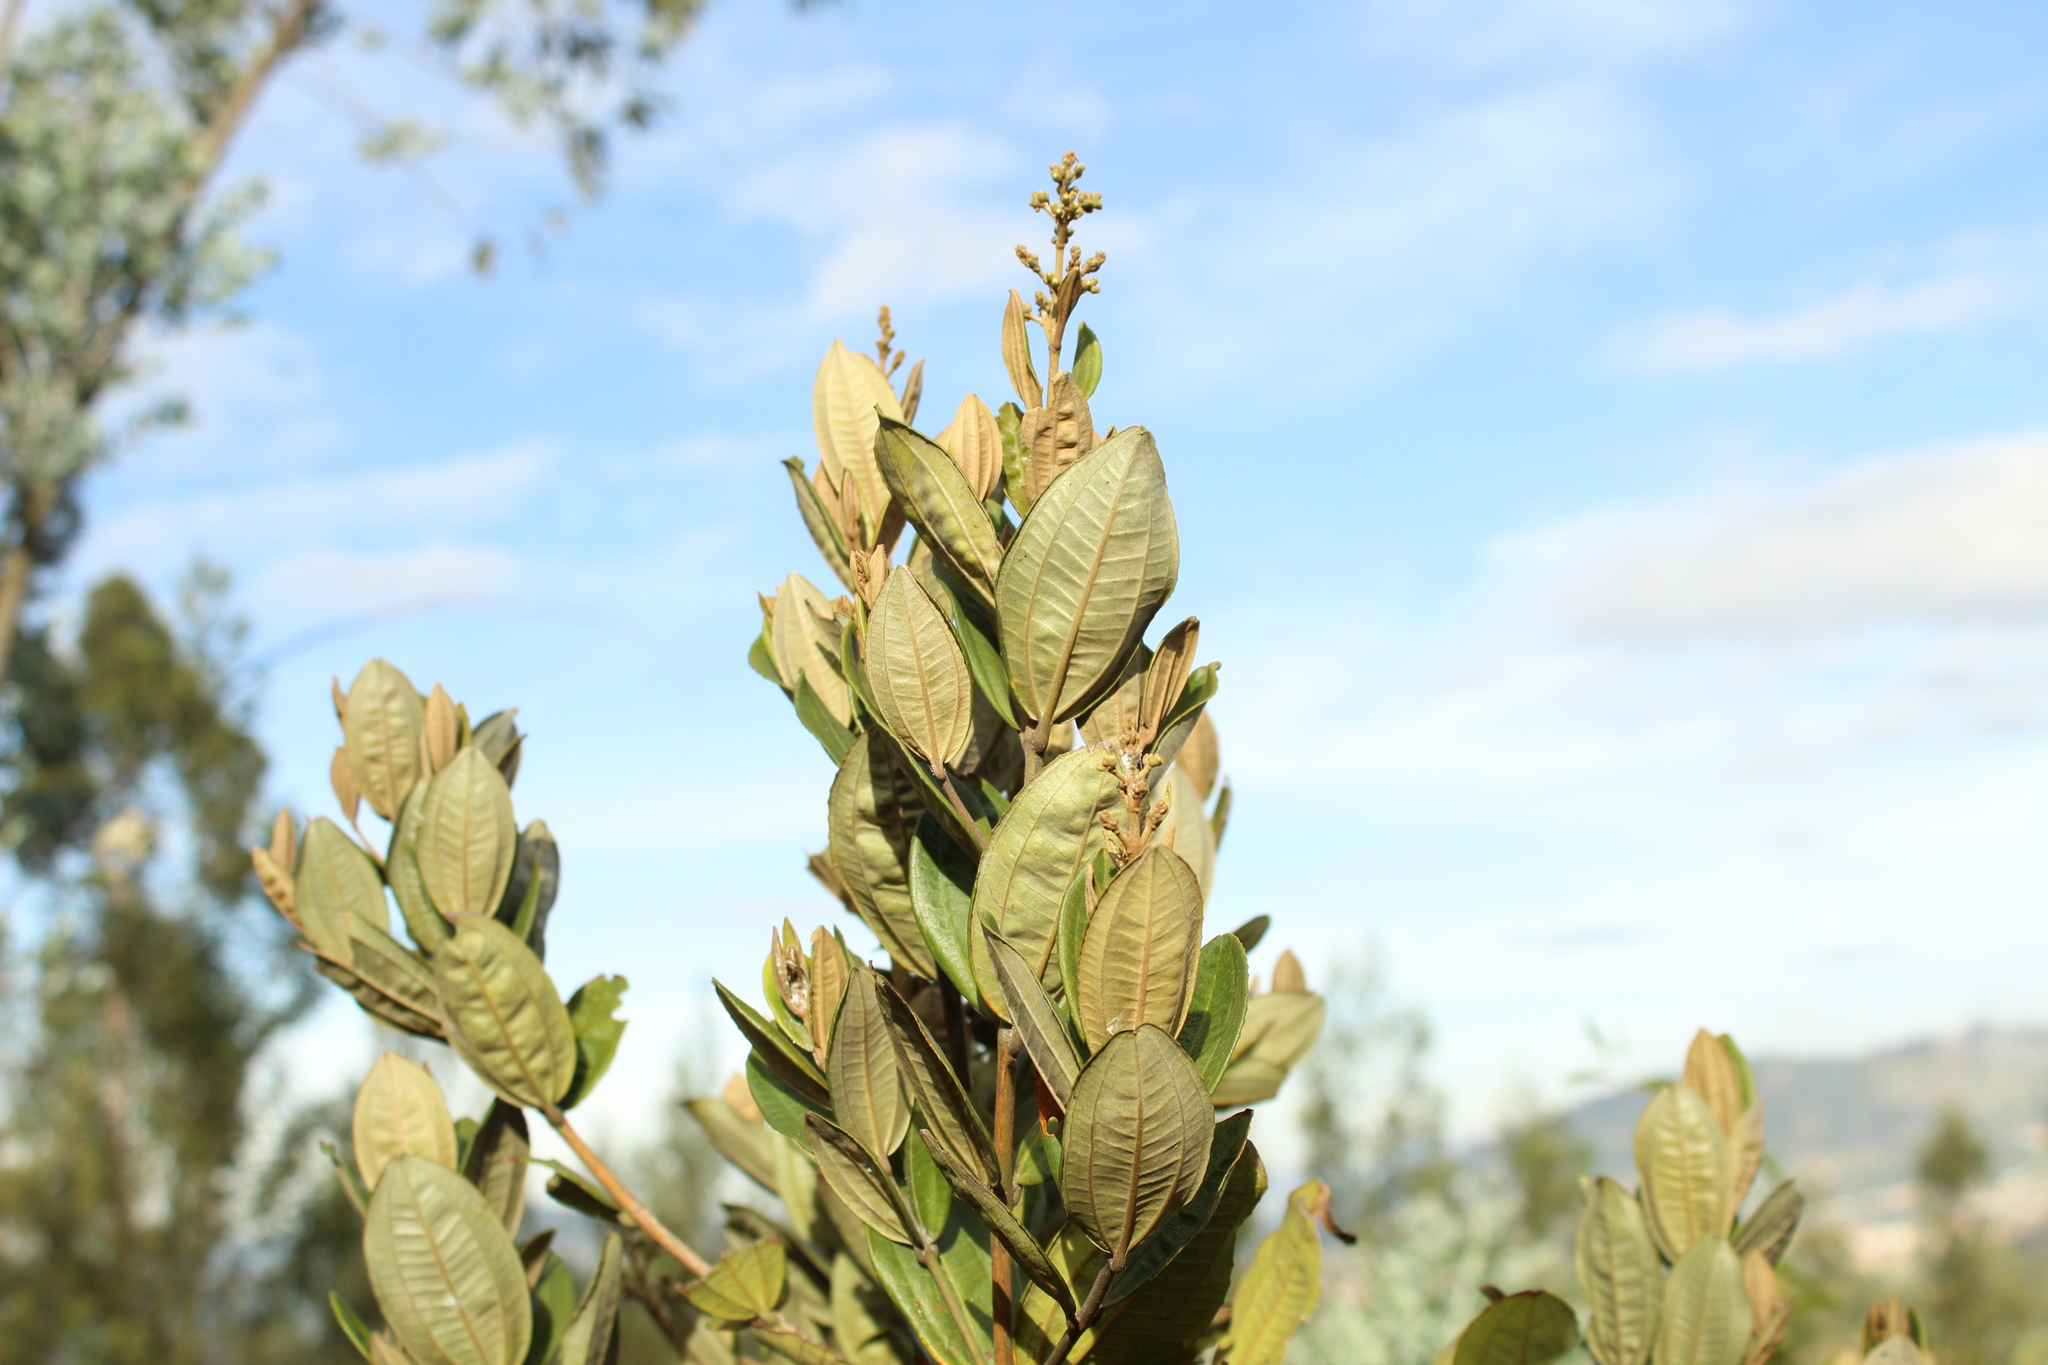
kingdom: Plantae
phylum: Tracheophyta
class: Magnoliopsida
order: Myrtales
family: Melastomataceae
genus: Miconia
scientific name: Miconia squamulosa
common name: Squamulose maya
